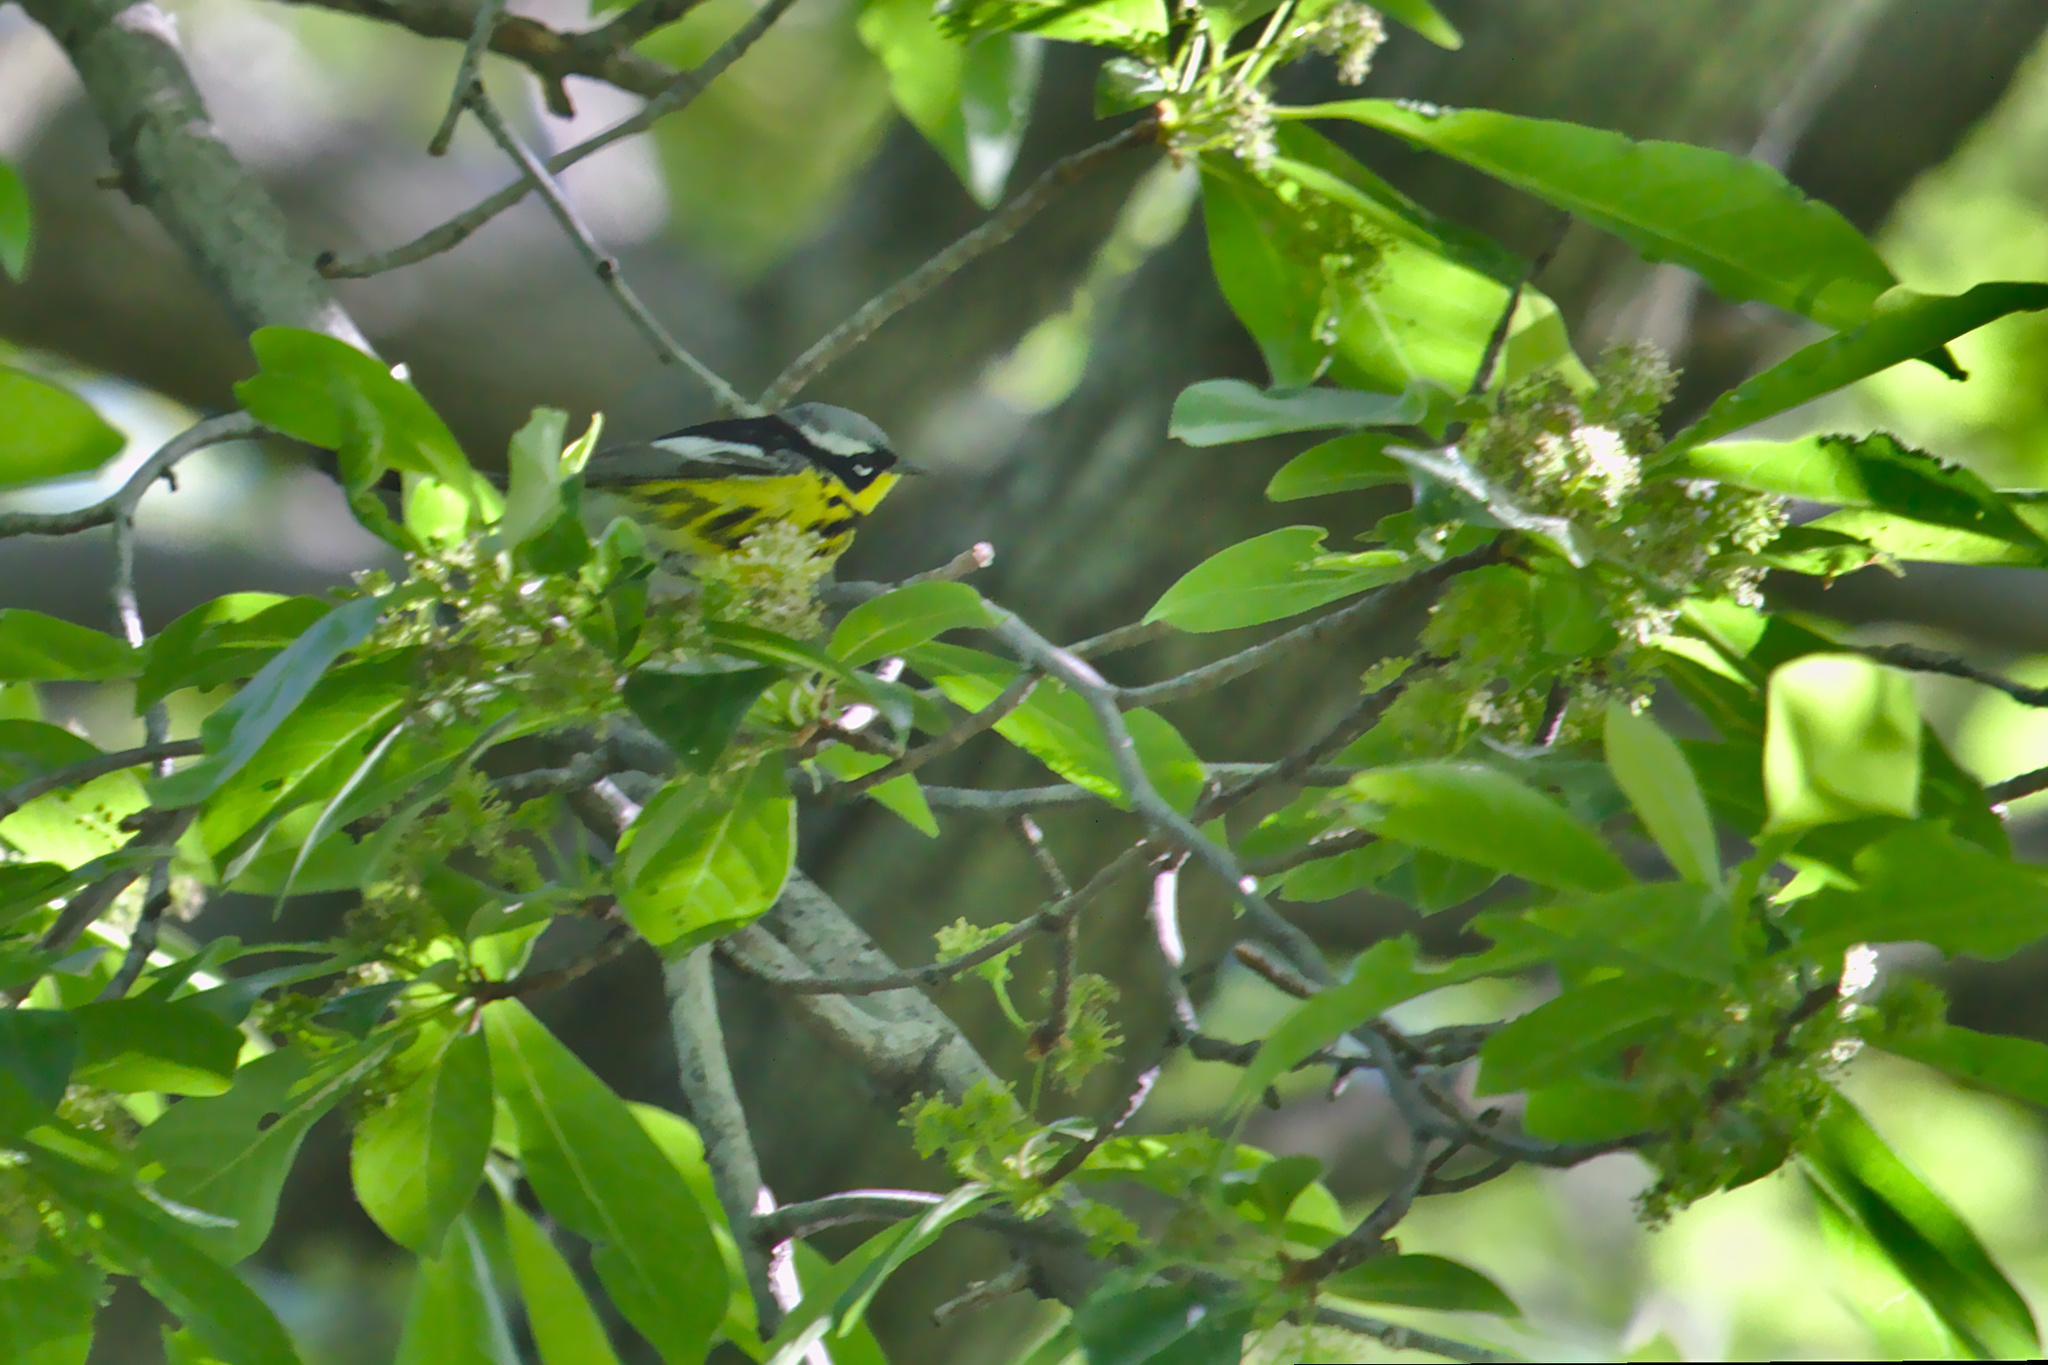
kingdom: Animalia
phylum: Chordata
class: Aves
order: Passeriformes
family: Parulidae
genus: Setophaga
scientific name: Setophaga magnolia
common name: Magnolia warbler
